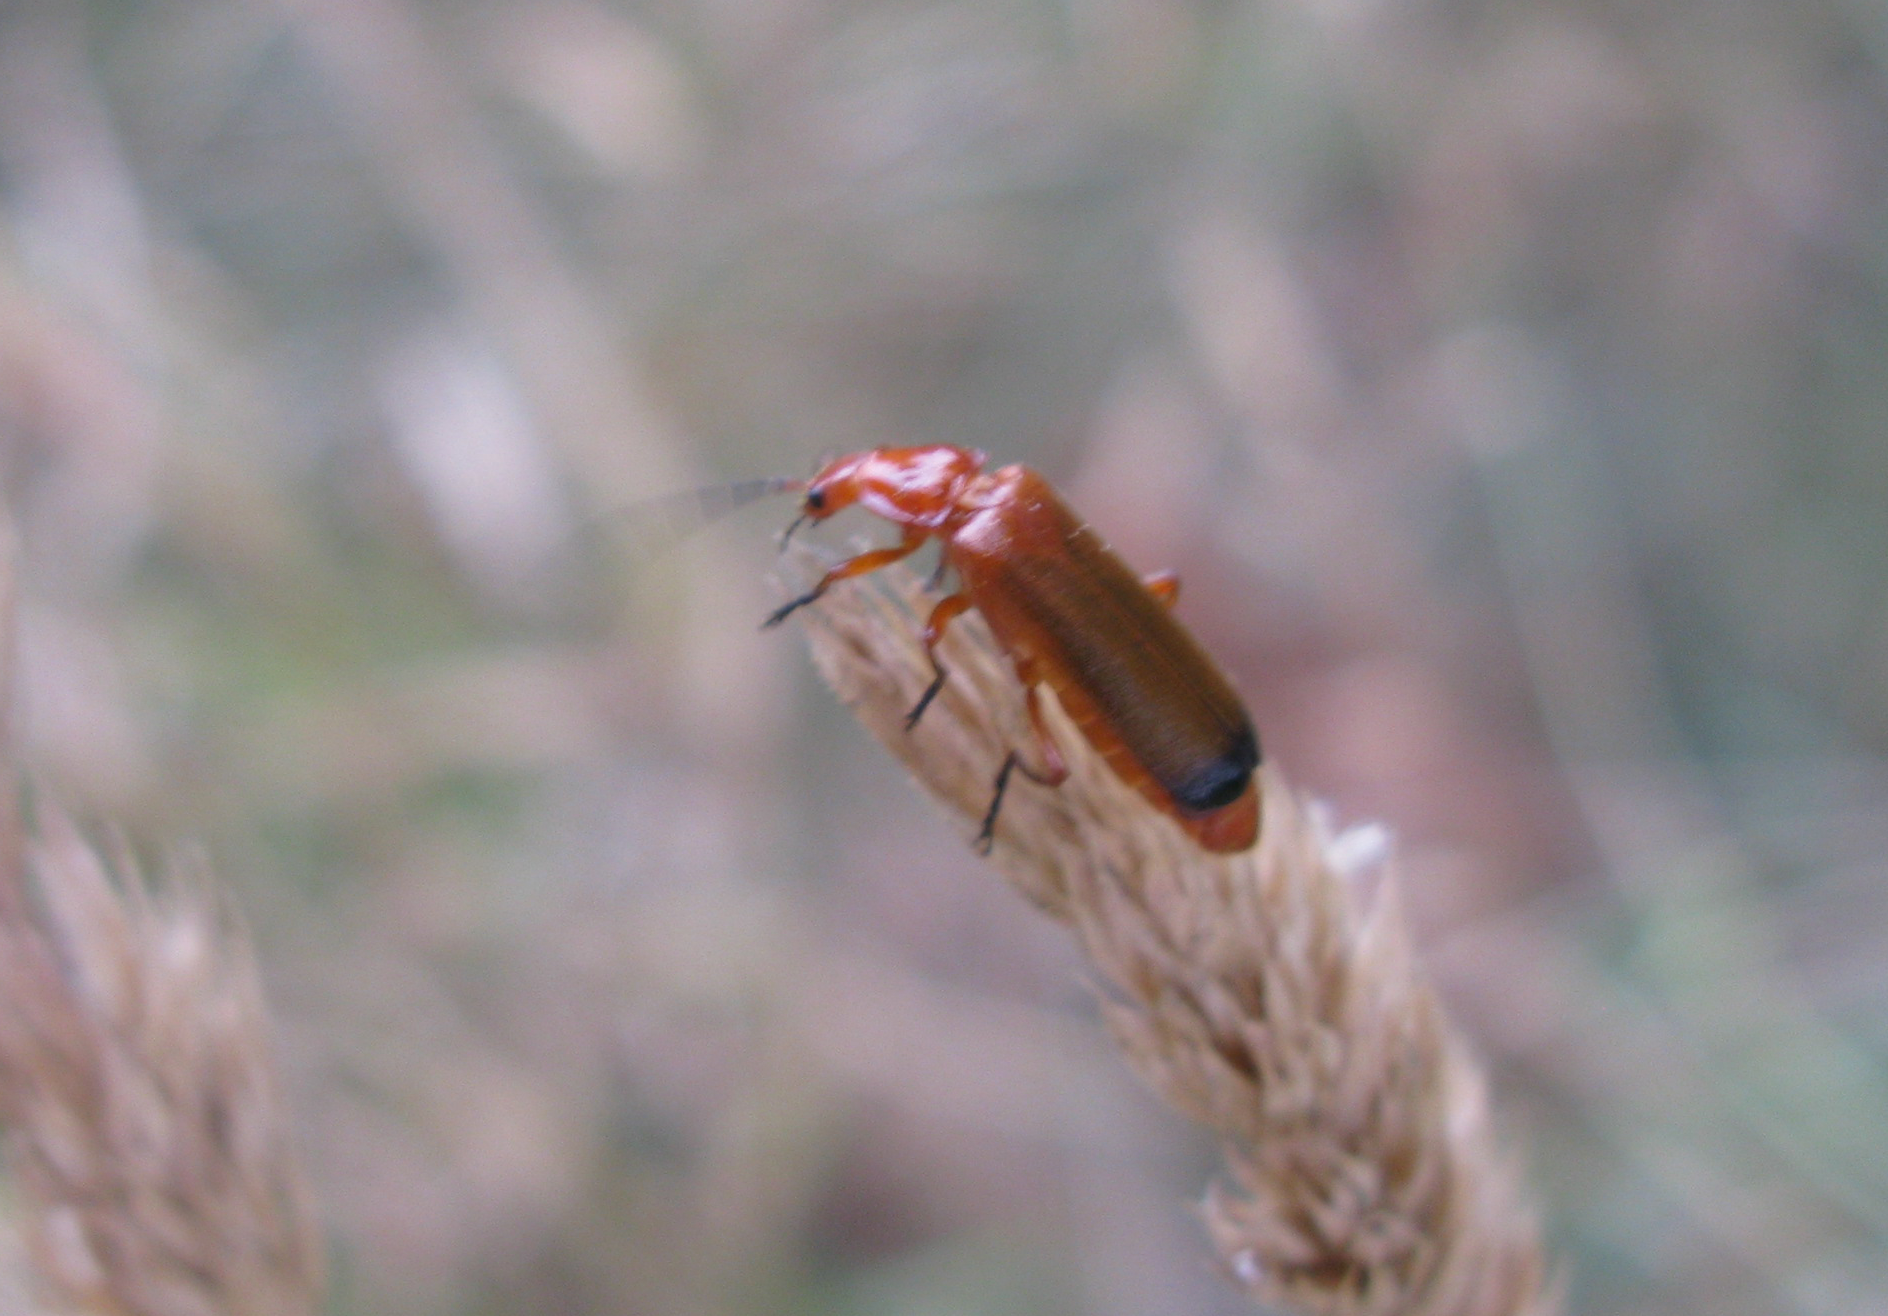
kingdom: Animalia
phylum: Arthropoda
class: Insecta
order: Coleoptera
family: Cantharidae
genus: Rhagonycha
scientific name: Rhagonycha fulva
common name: Common red soldier beetle
